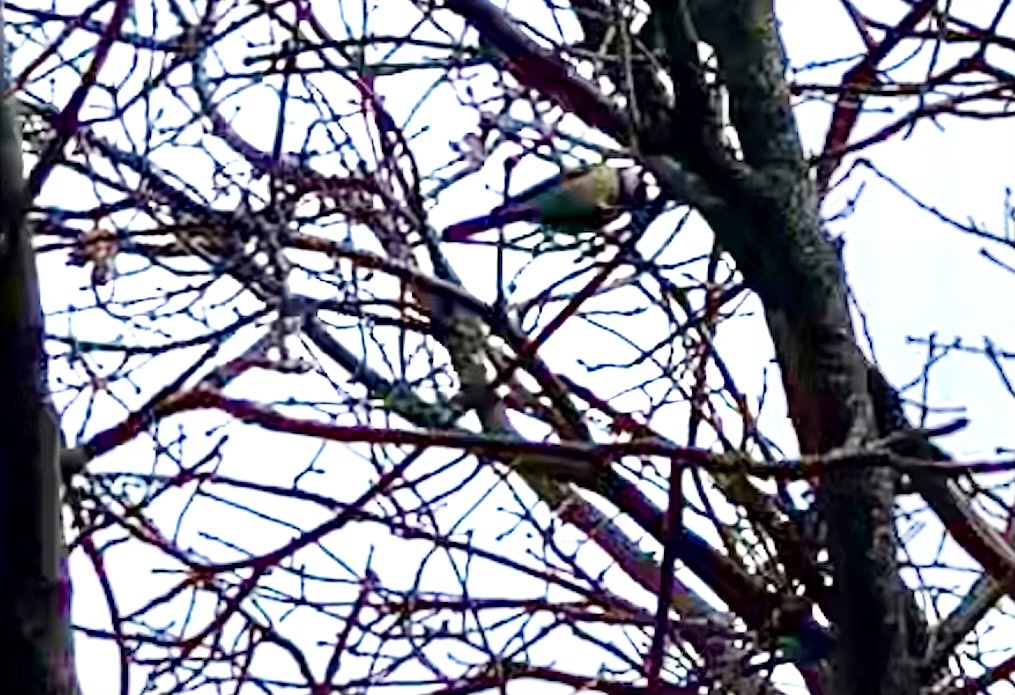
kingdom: Animalia
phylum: Chordata
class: Aves
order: Passeriformes
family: Paridae
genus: Cyanistes
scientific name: Cyanistes caeruleus
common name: Eurasian blue tit
